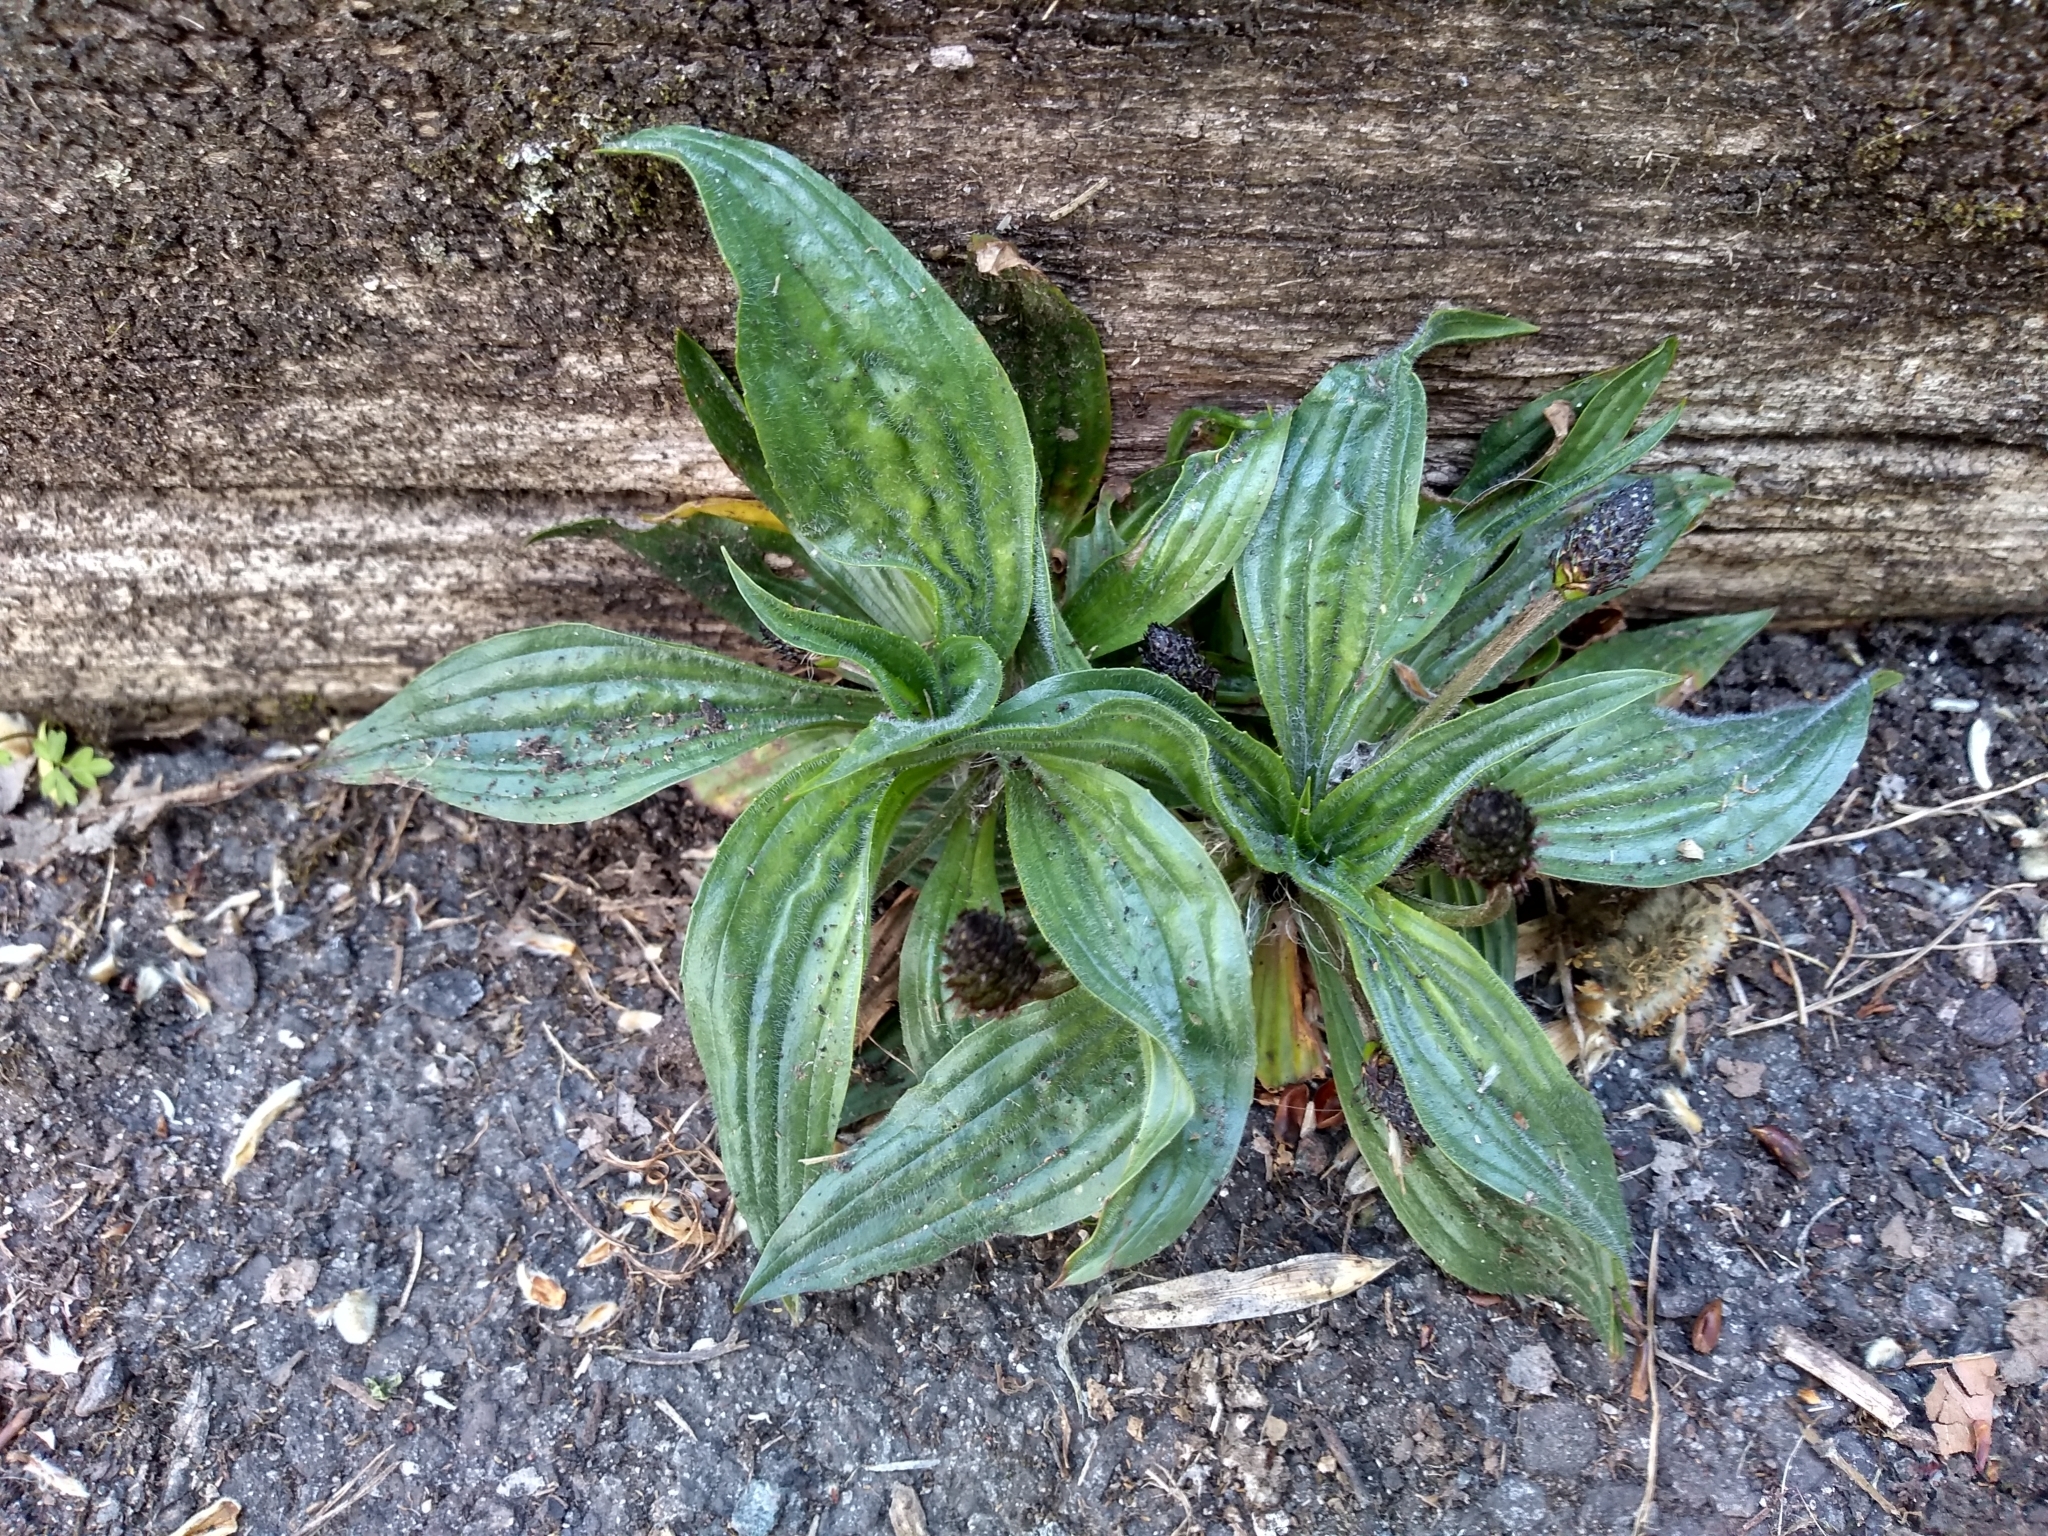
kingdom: Plantae
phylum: Tracheophyta
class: Magnoliopsida
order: Lamiales
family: Plantaginaceae
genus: Plantago
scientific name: Plantago lanceolata
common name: Ribwort plantain
